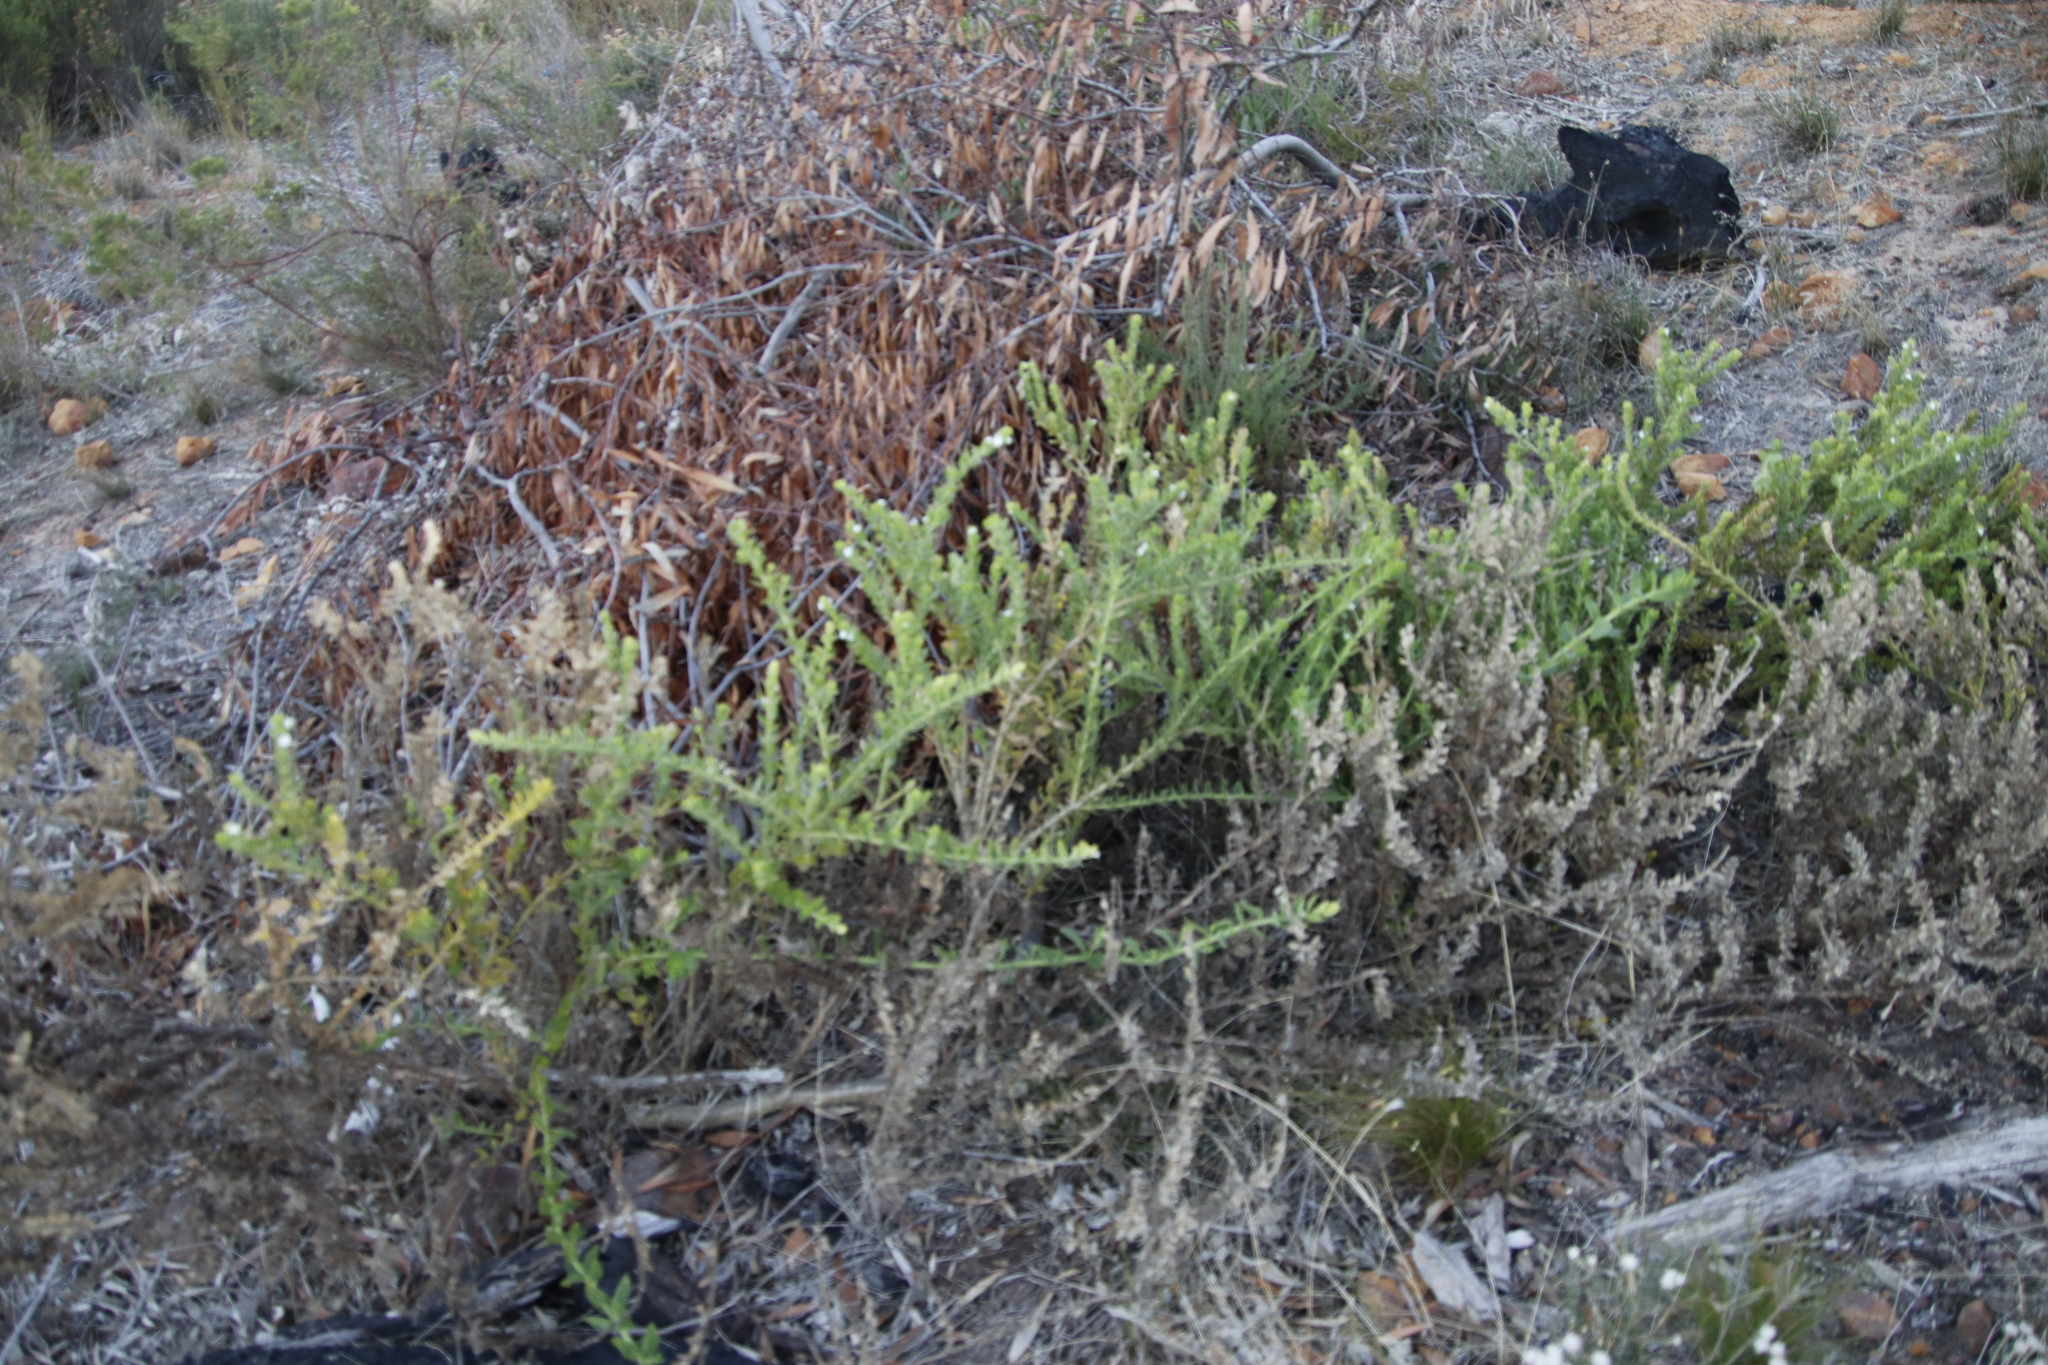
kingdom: Plantae
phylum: Tracheophyta
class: Magnoliopsida
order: Lamiales
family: Scrophulariaceae
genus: Oftia
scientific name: Oftia africana
